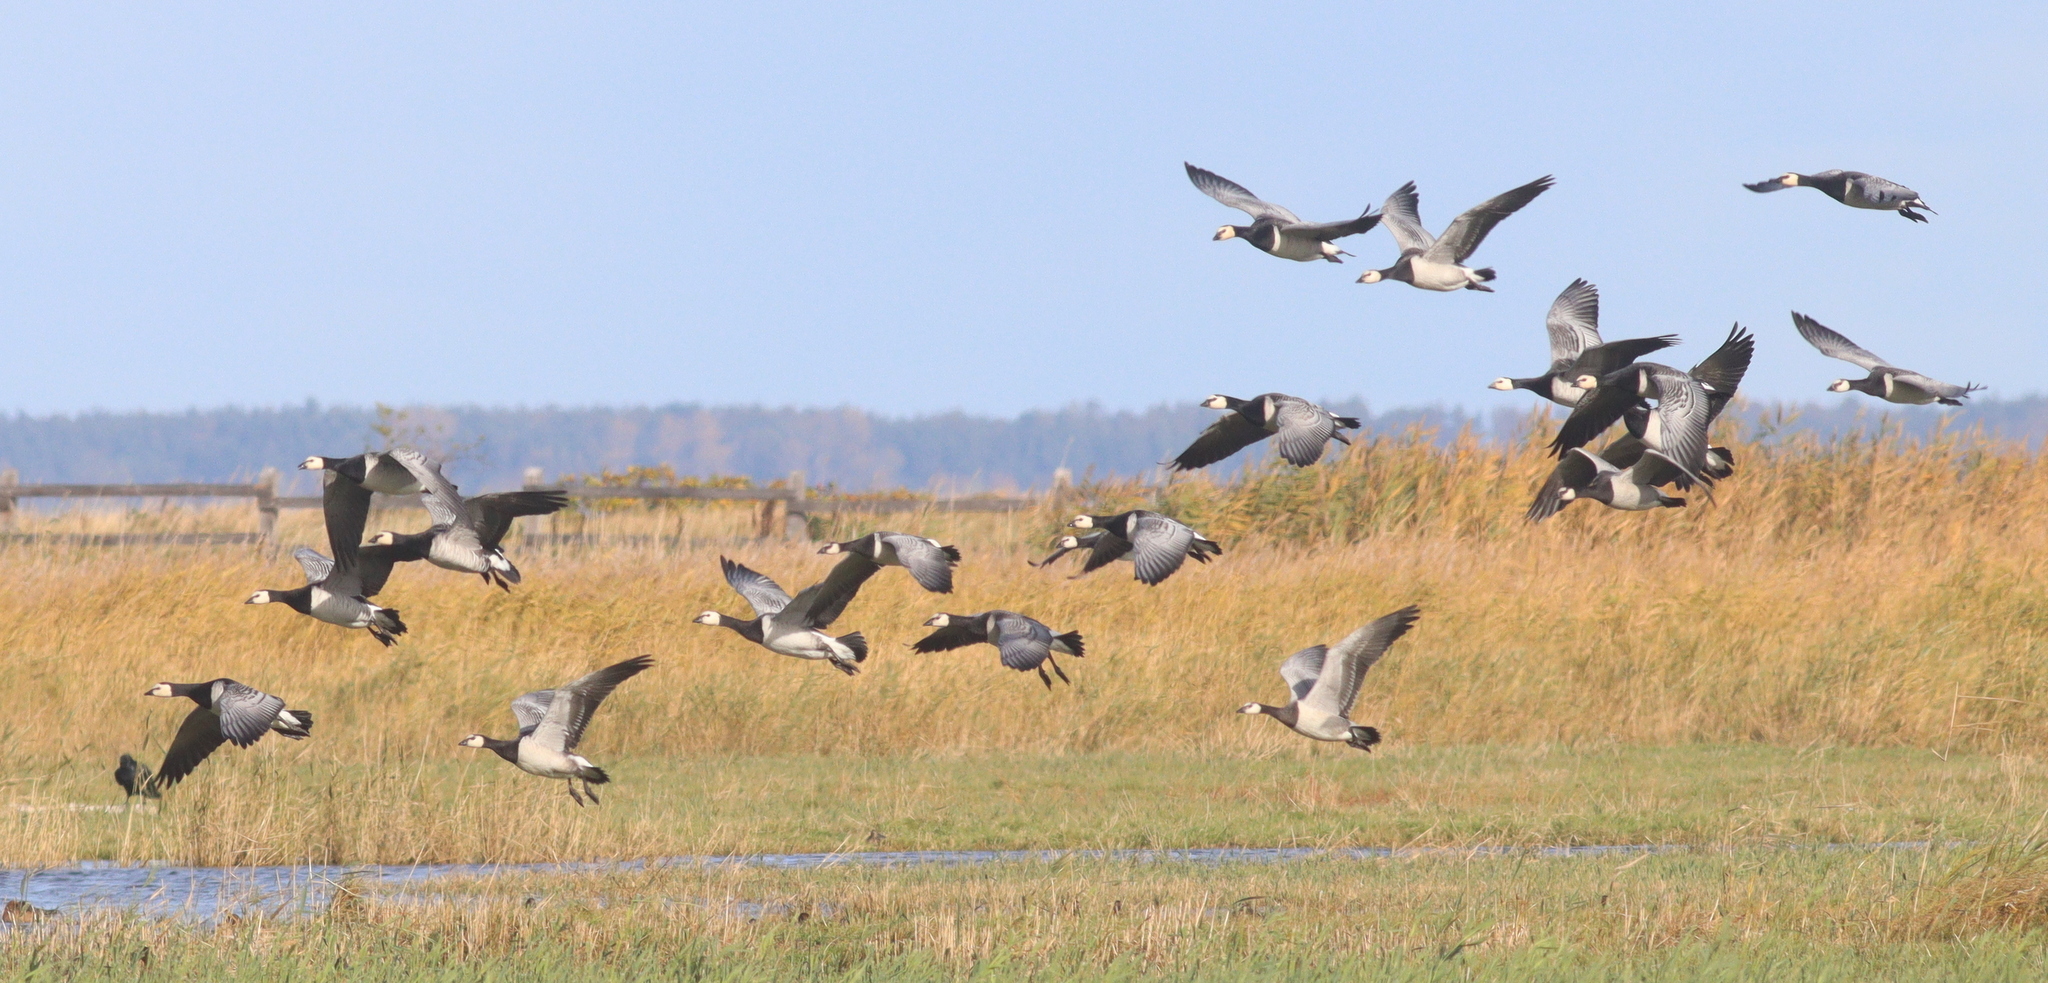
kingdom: Animalia
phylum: Chordata
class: Aves
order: Anseriformes
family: Anatidae
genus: Branta
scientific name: Branta leucopsis
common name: Barnacle goose
